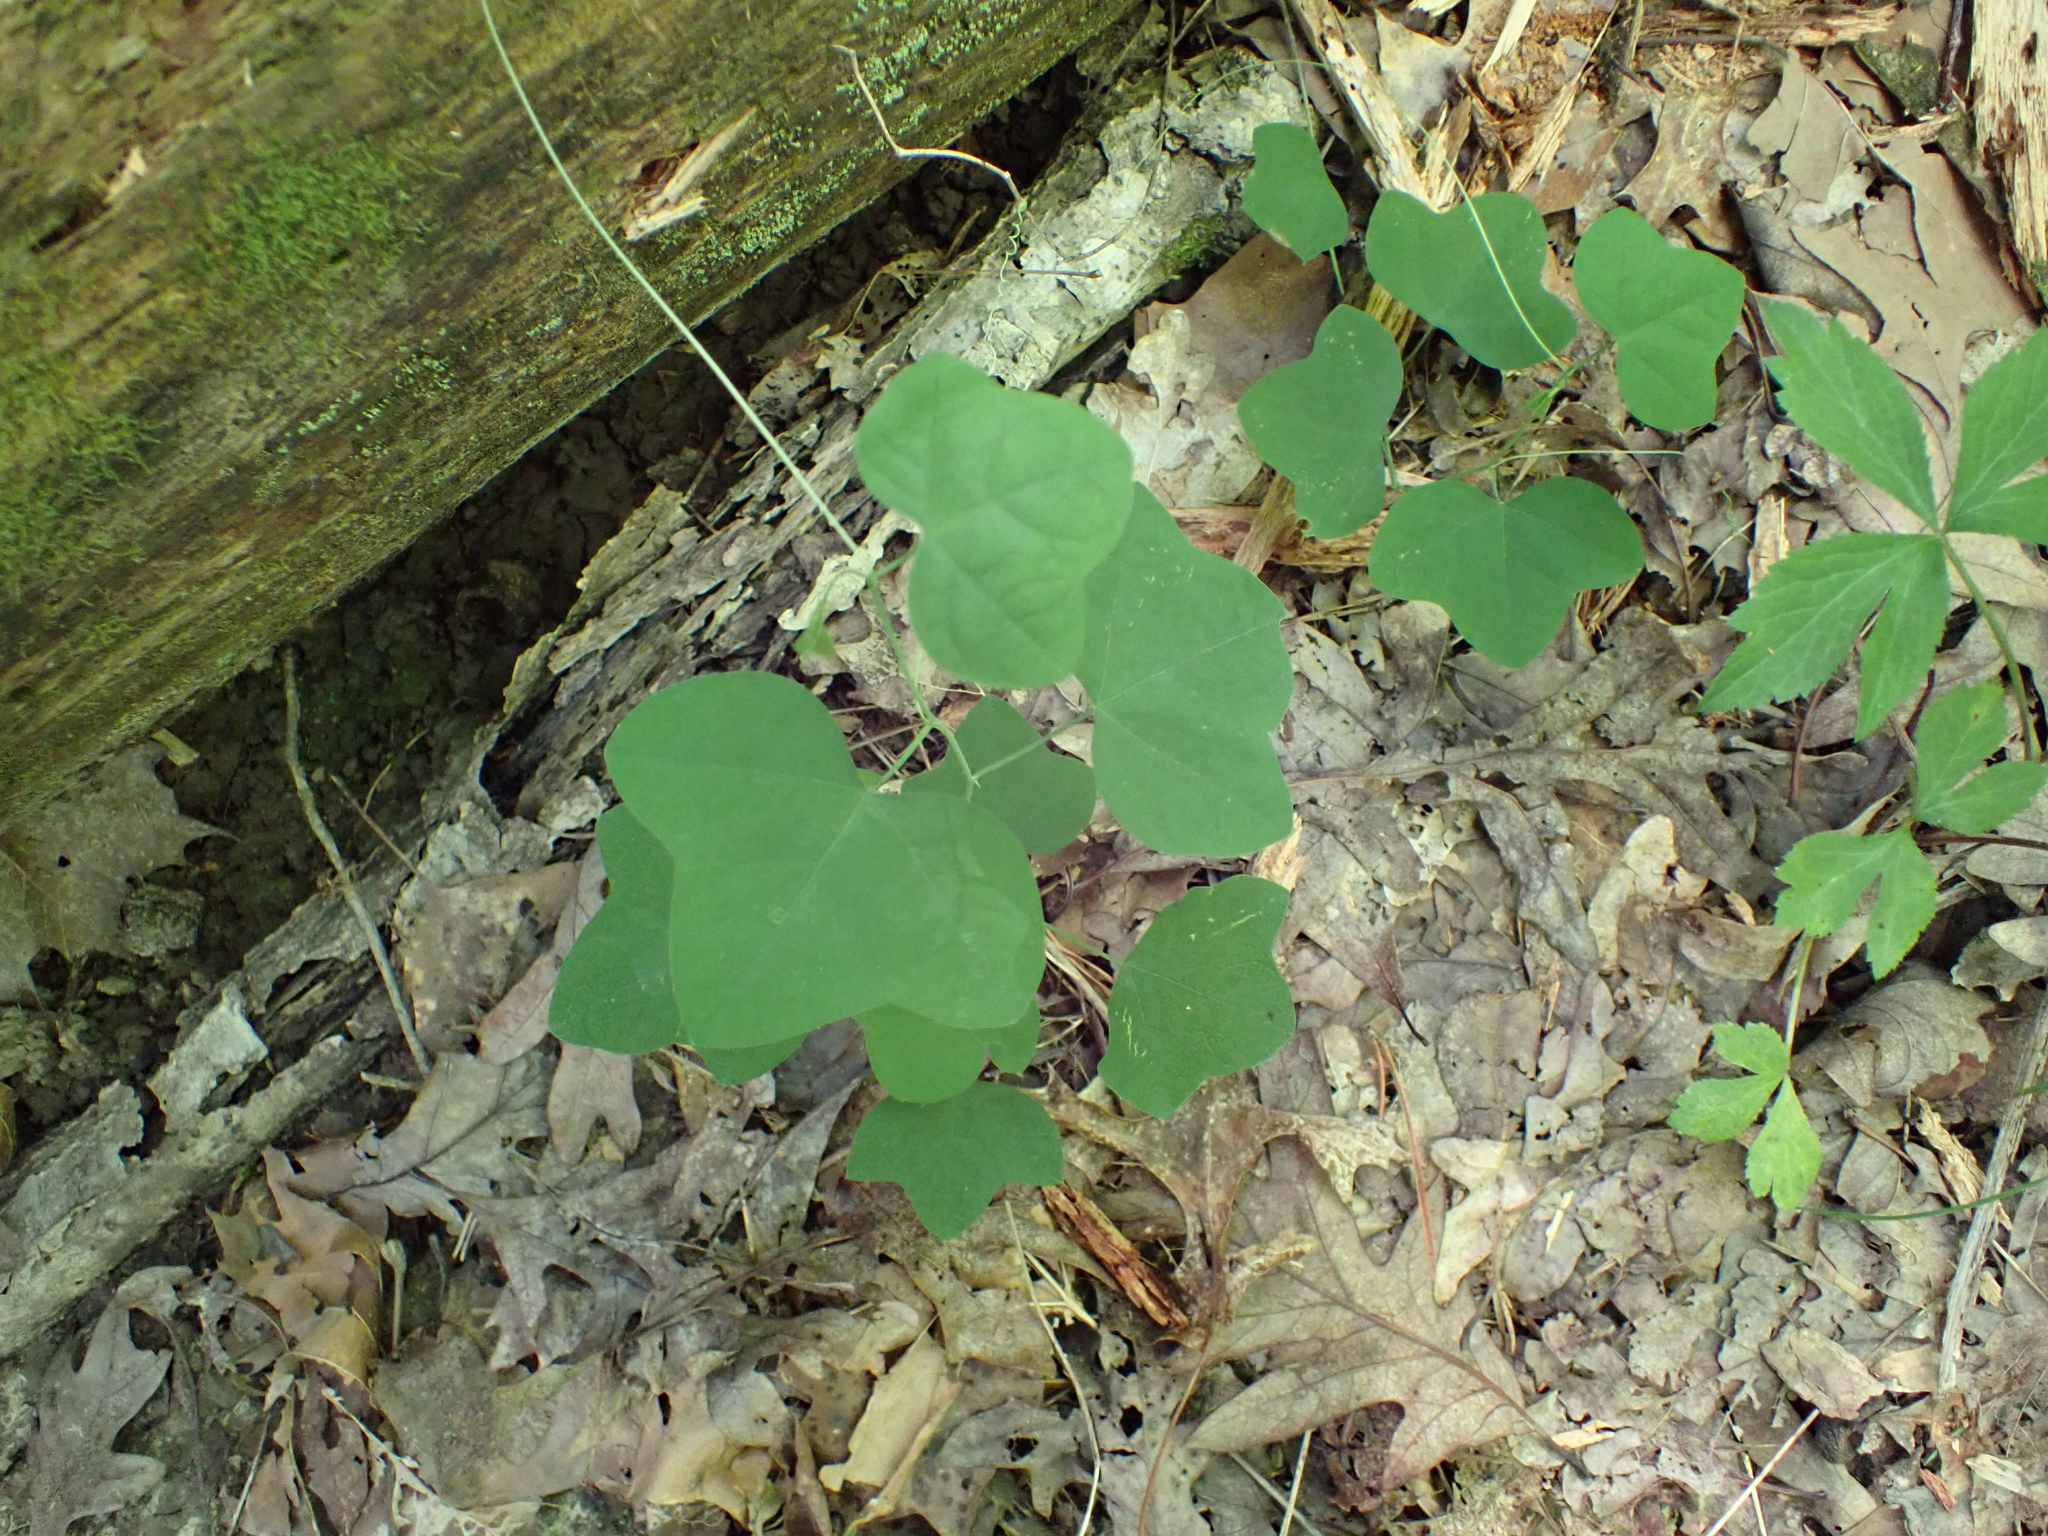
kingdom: Plantae
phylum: Tracheophyta
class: Magnoliopsida
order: Malpighiales
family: Passifloraceae
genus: Passiflora
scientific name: Passiflora lutea
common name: Yellow passionflower
